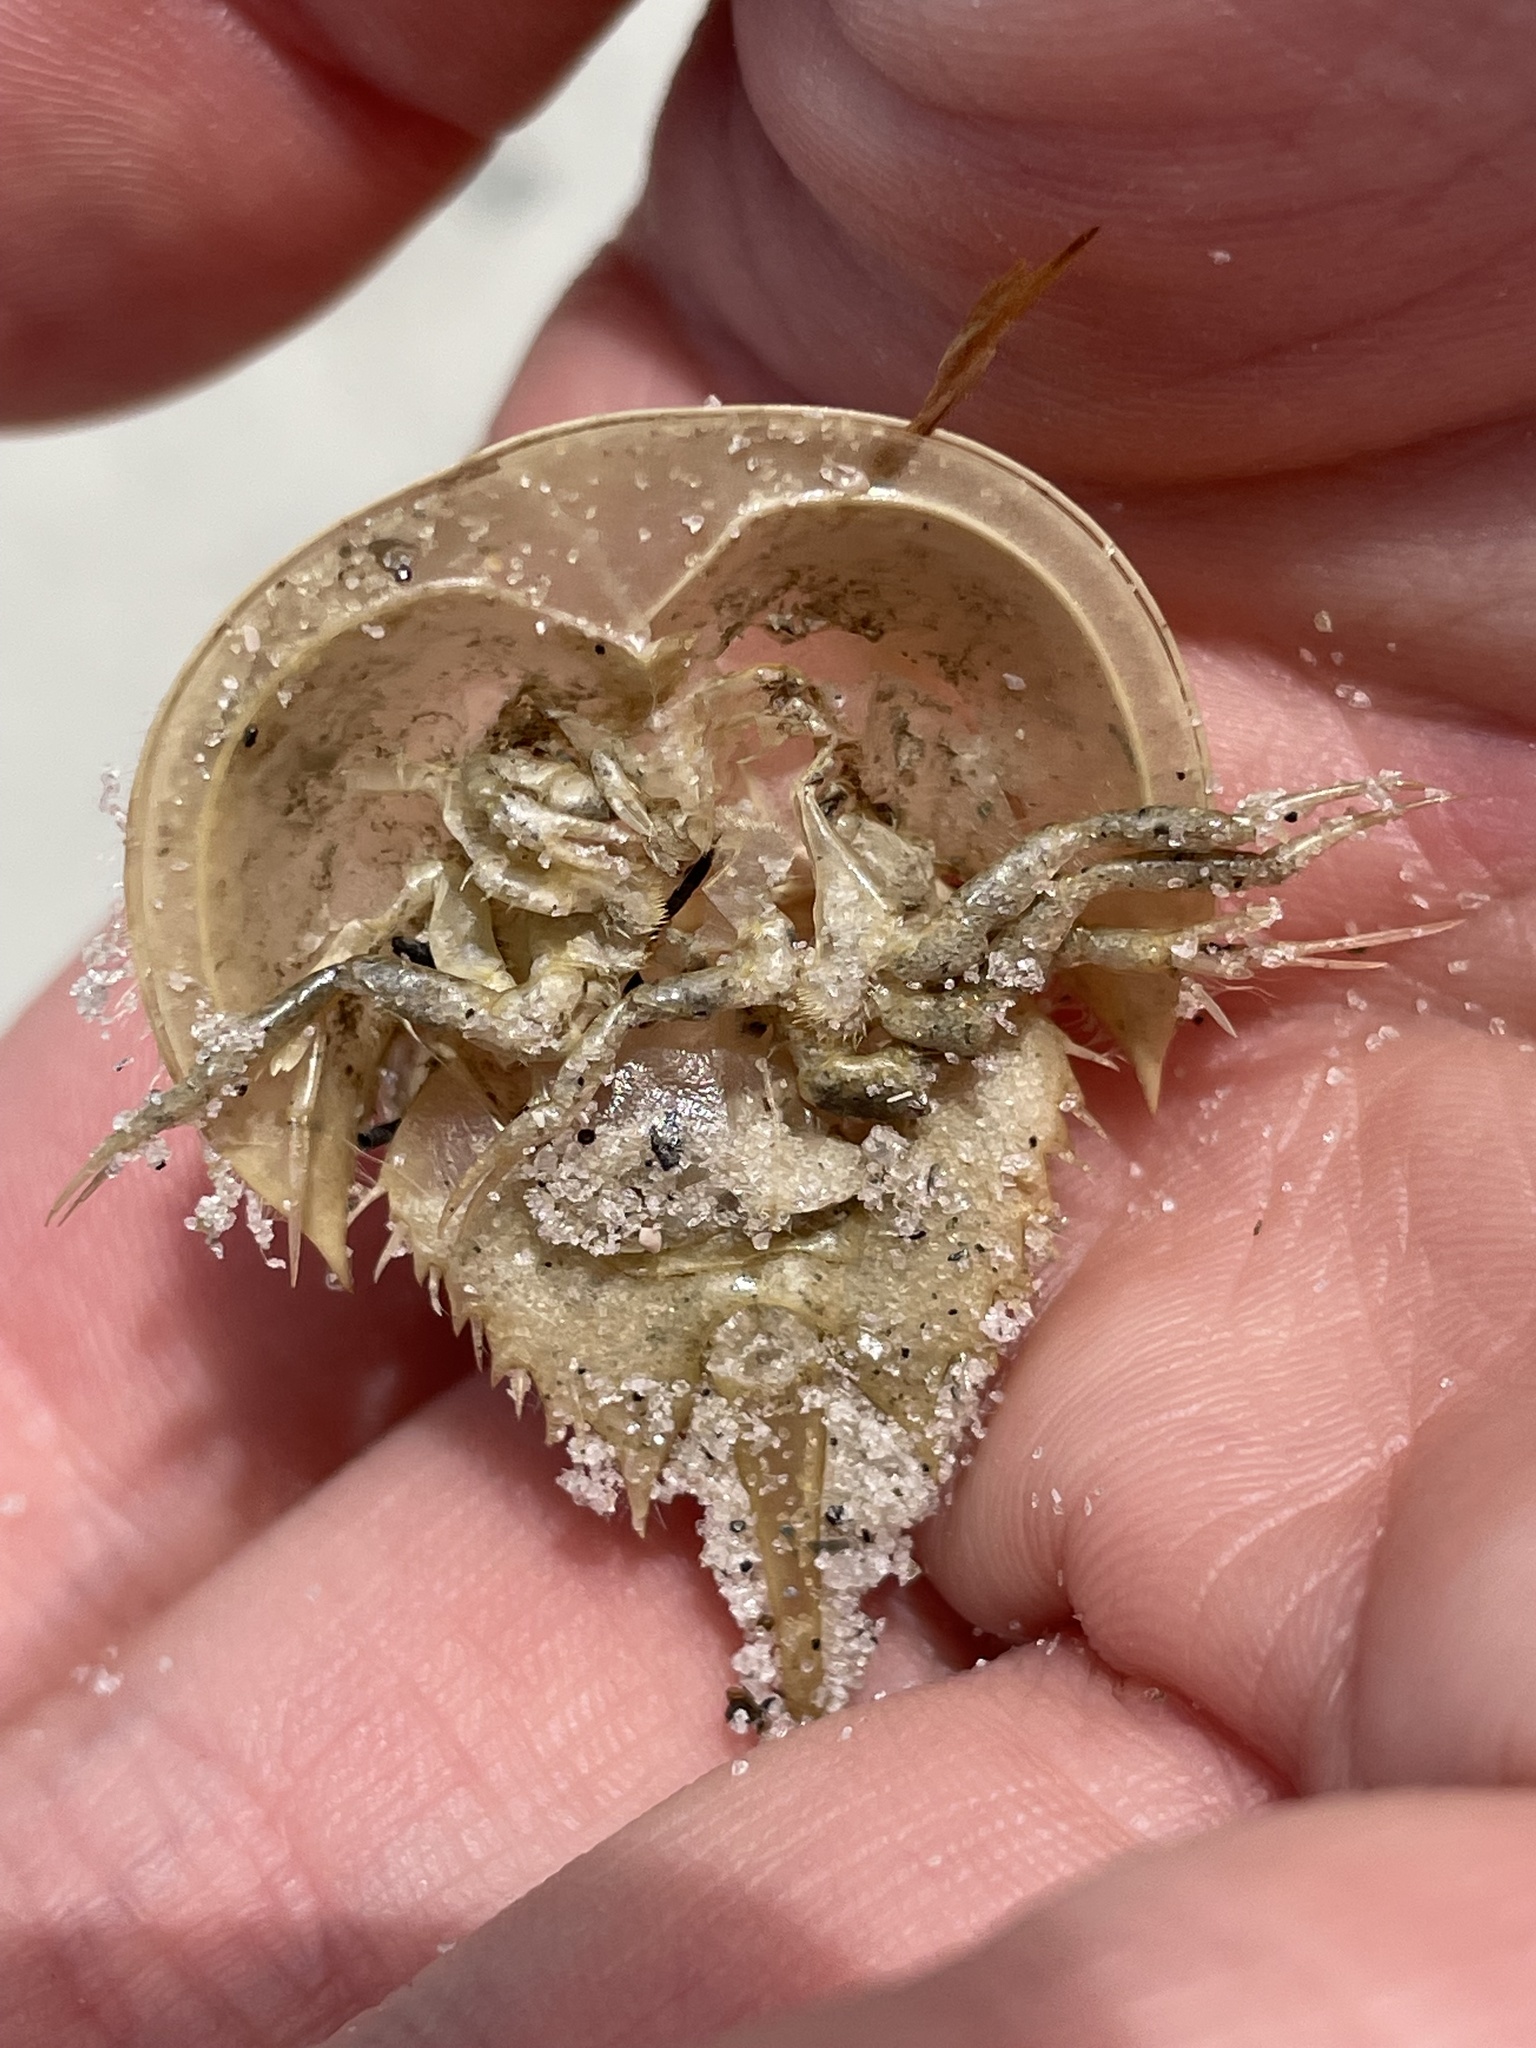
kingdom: Animalia
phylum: Arthropoda
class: Merostomata
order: Xiphosurida
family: Limulidae
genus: Limulus
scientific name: Limulus polyphemus
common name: Horseshoe crab
